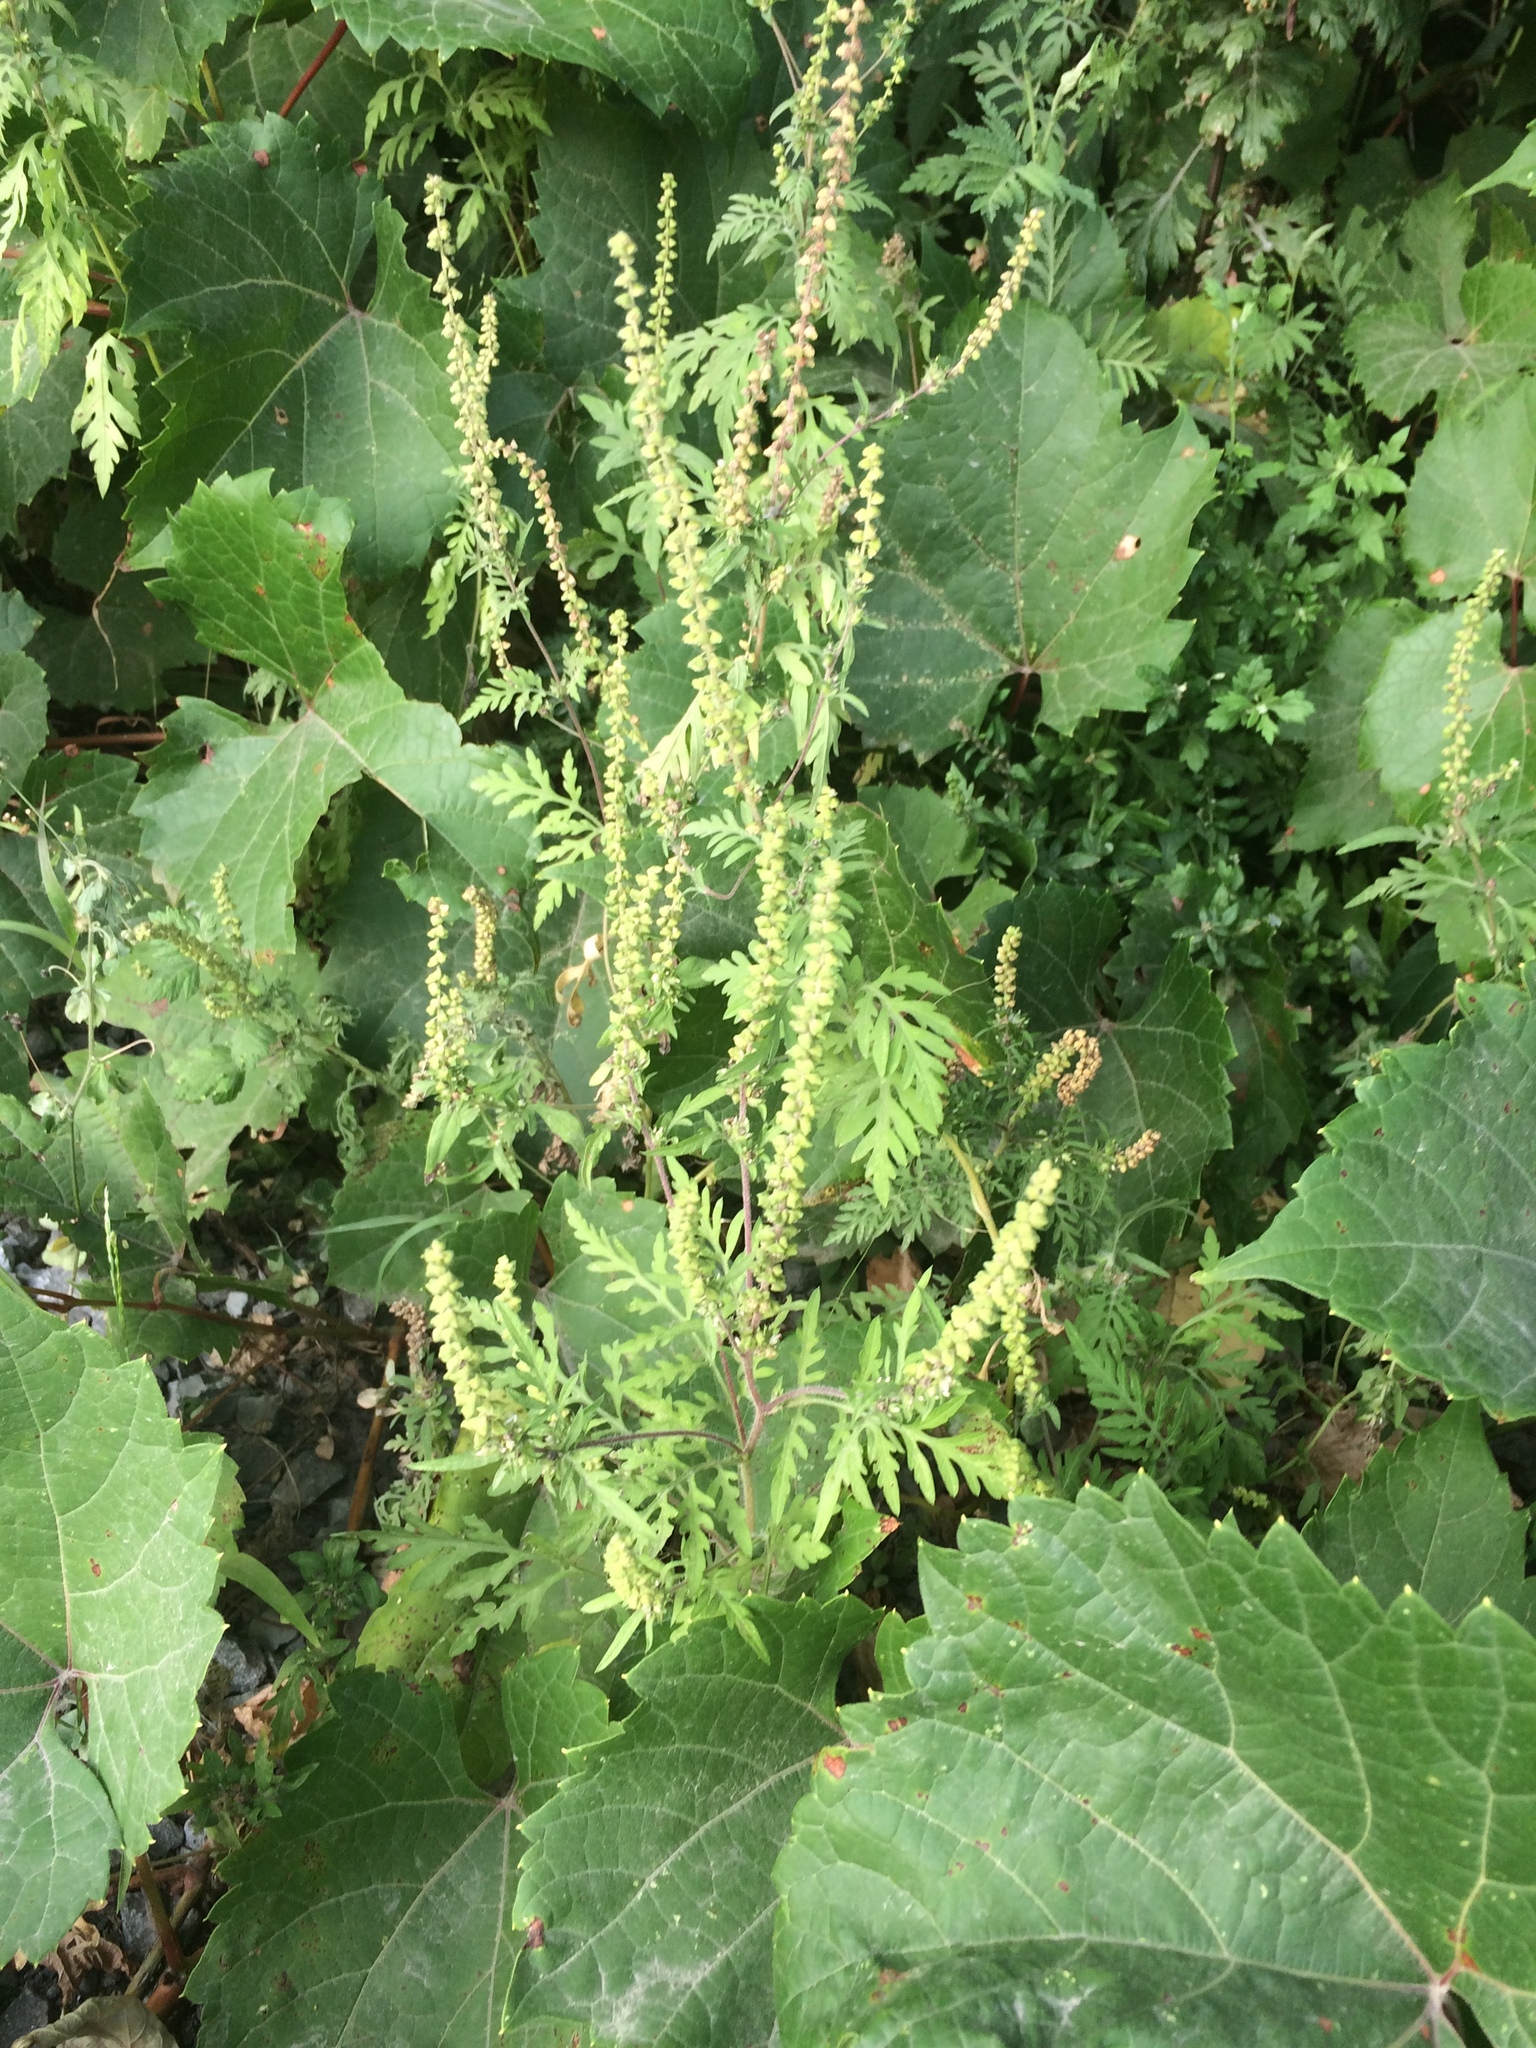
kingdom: Plantae
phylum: Tracheophyta
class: Magnoliopsida
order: Asterales
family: Asteraceae
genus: Ambrosia
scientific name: Ambrosia artemisiifolia
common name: Annual ragweed
